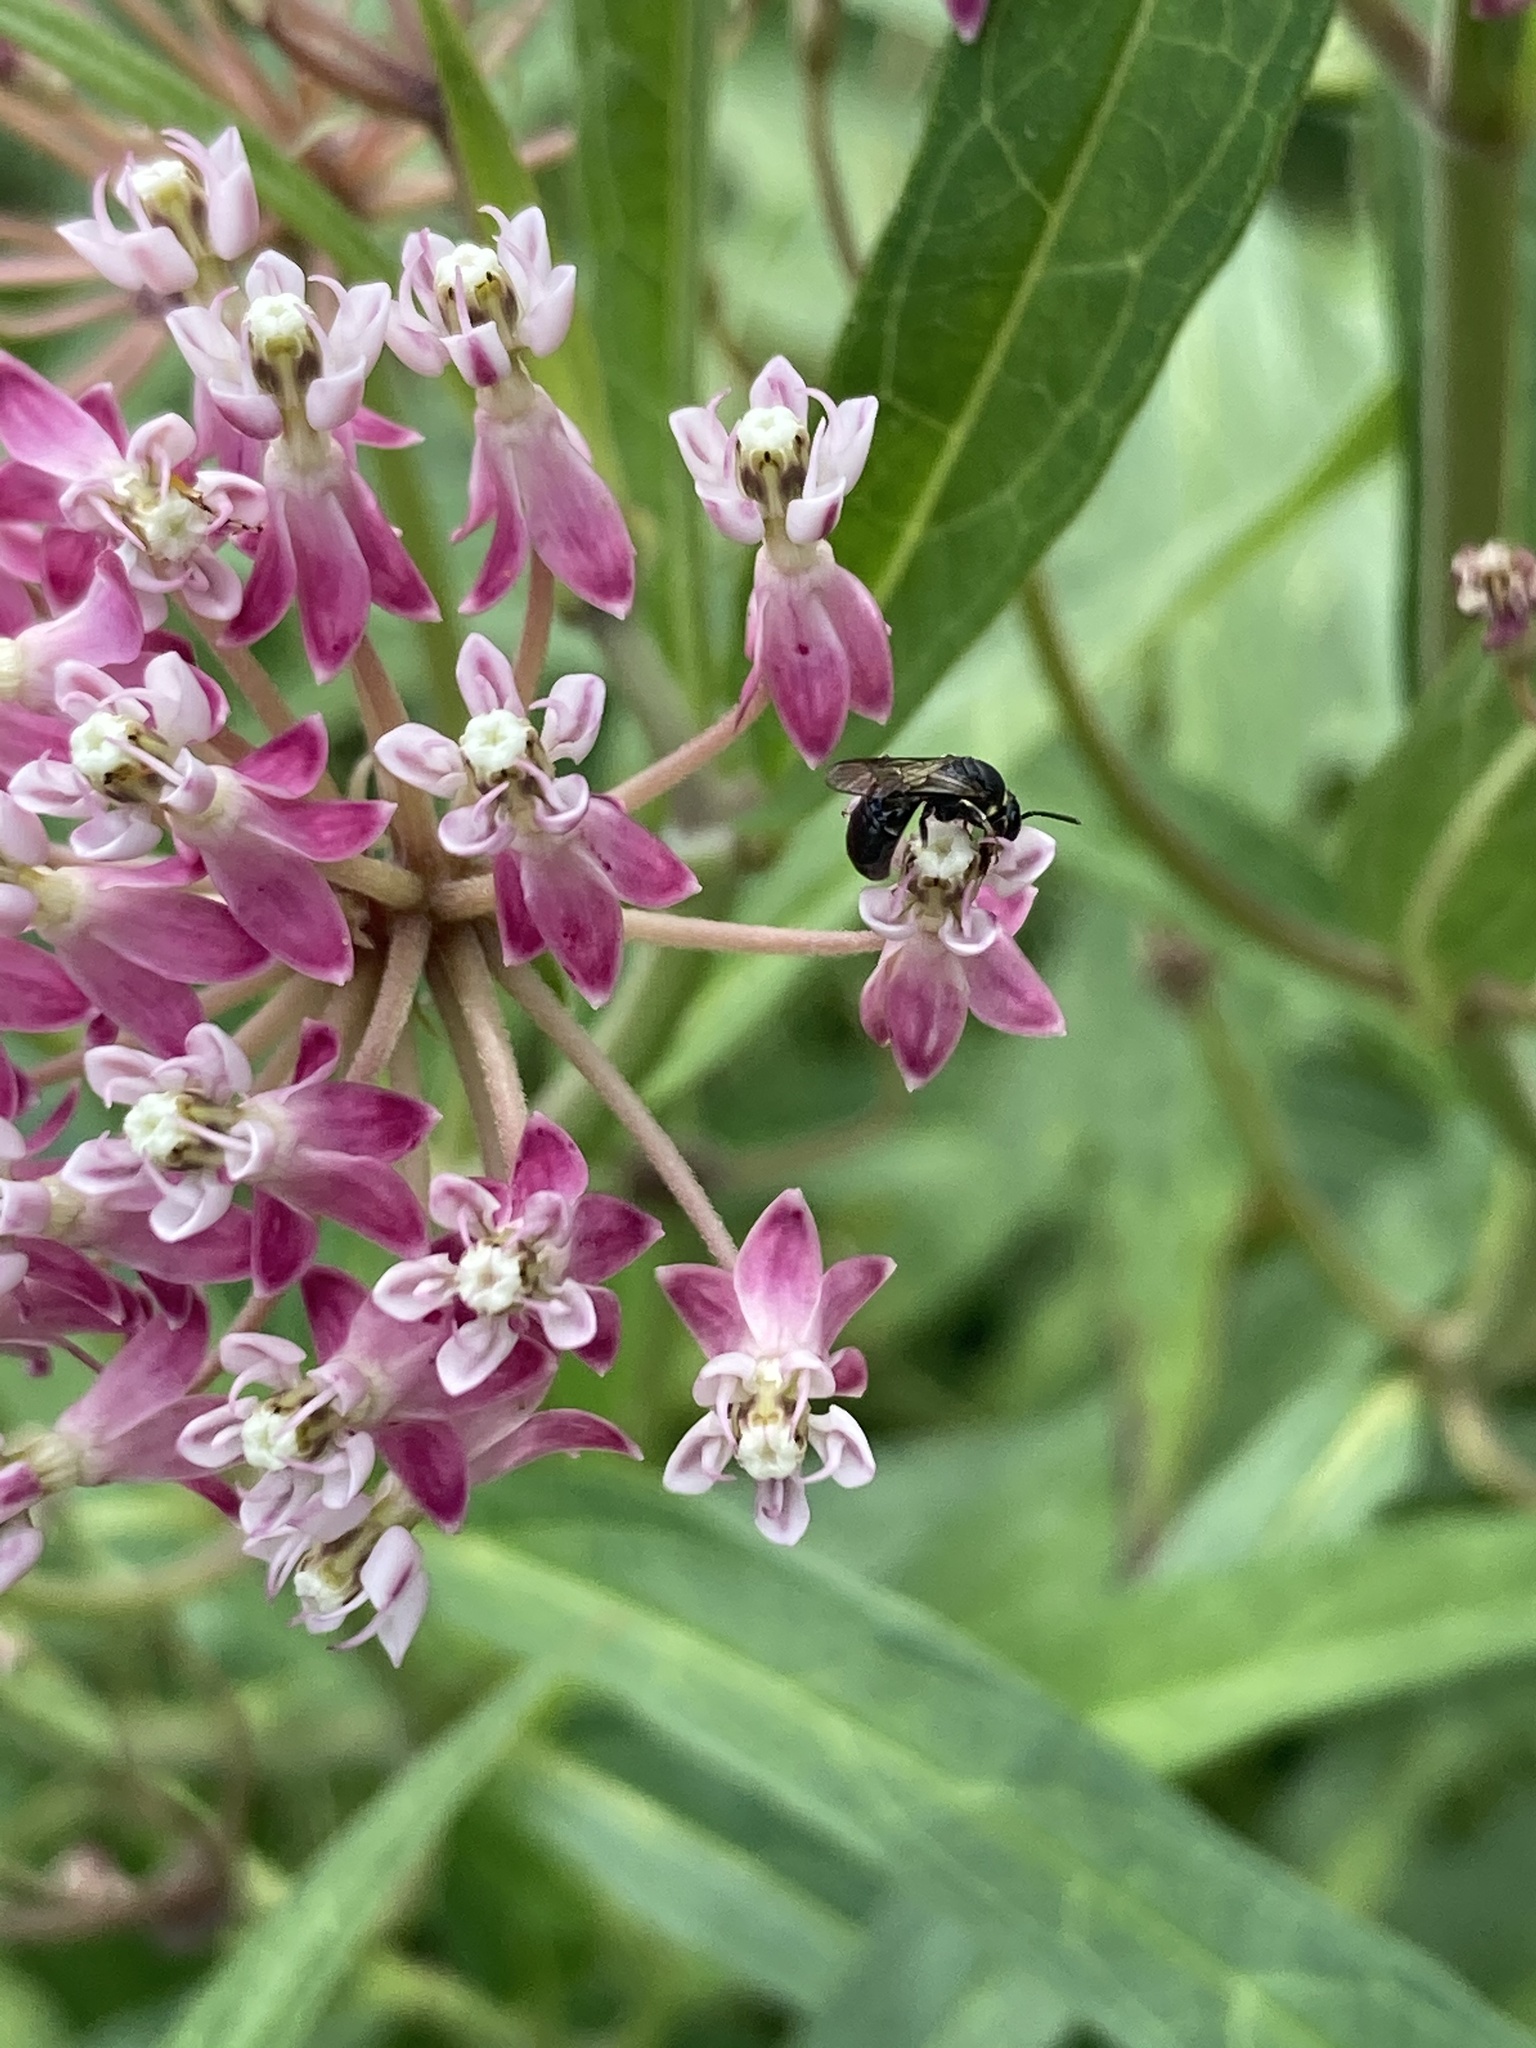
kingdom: Animalia
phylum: Arthropoda
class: Insecta
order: Hymenoptera
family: Colletidae
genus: Hylaeus
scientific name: Hylaeus modestus
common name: Yellow-faced bee
